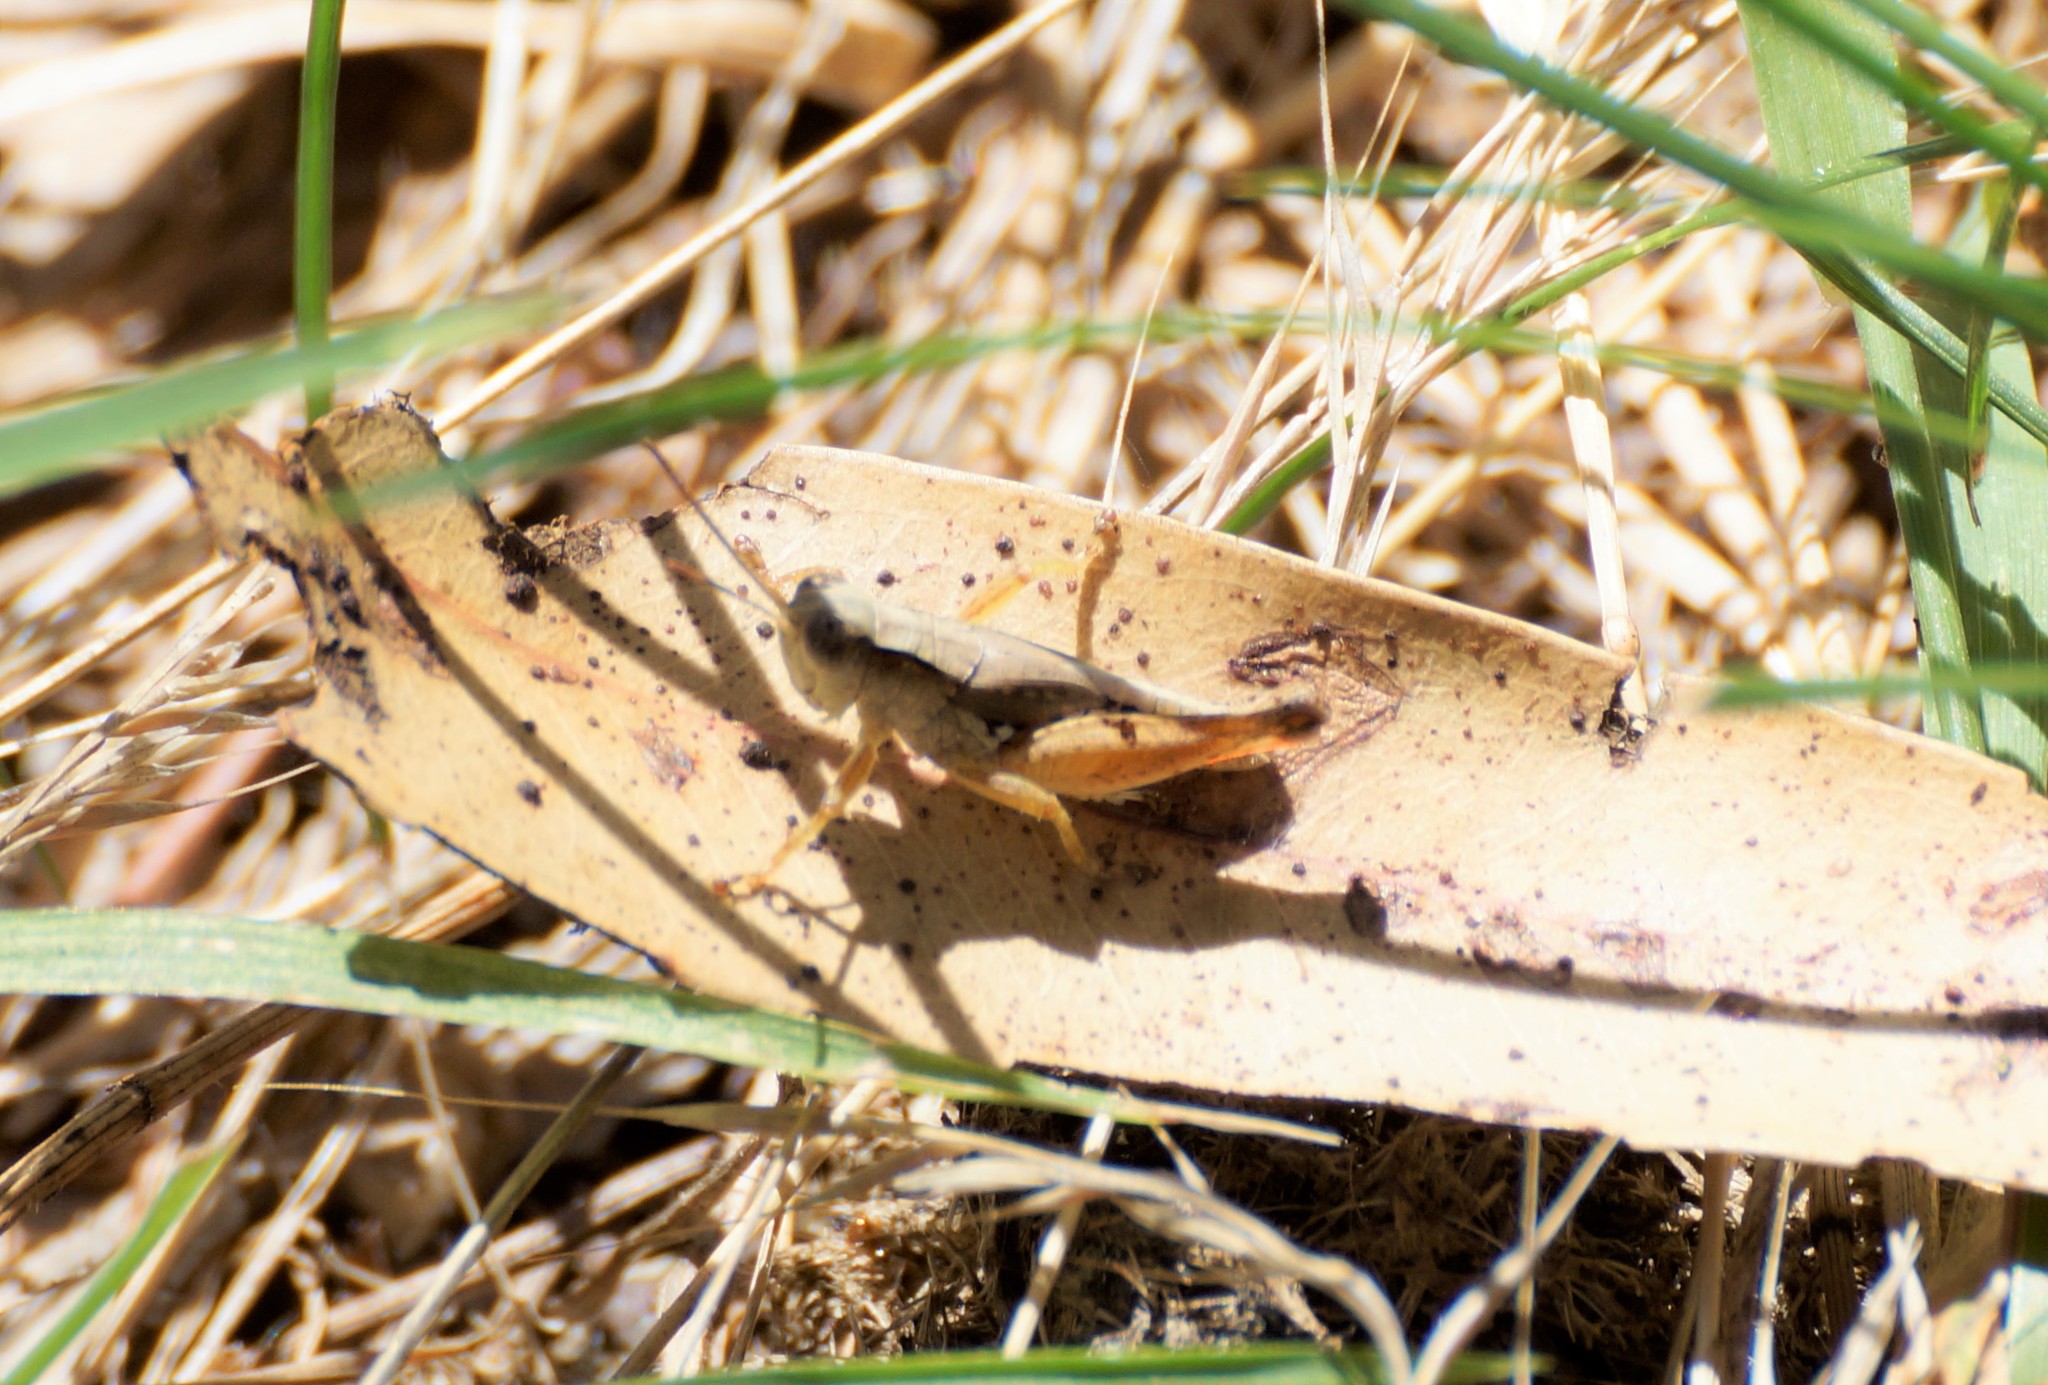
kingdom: Animalia
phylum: Arthropoda
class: Insecta
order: Orthoptera
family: Acrididae
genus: Phaulacridium
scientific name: Phaulacridium vittatum
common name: Wingless grasshopper
